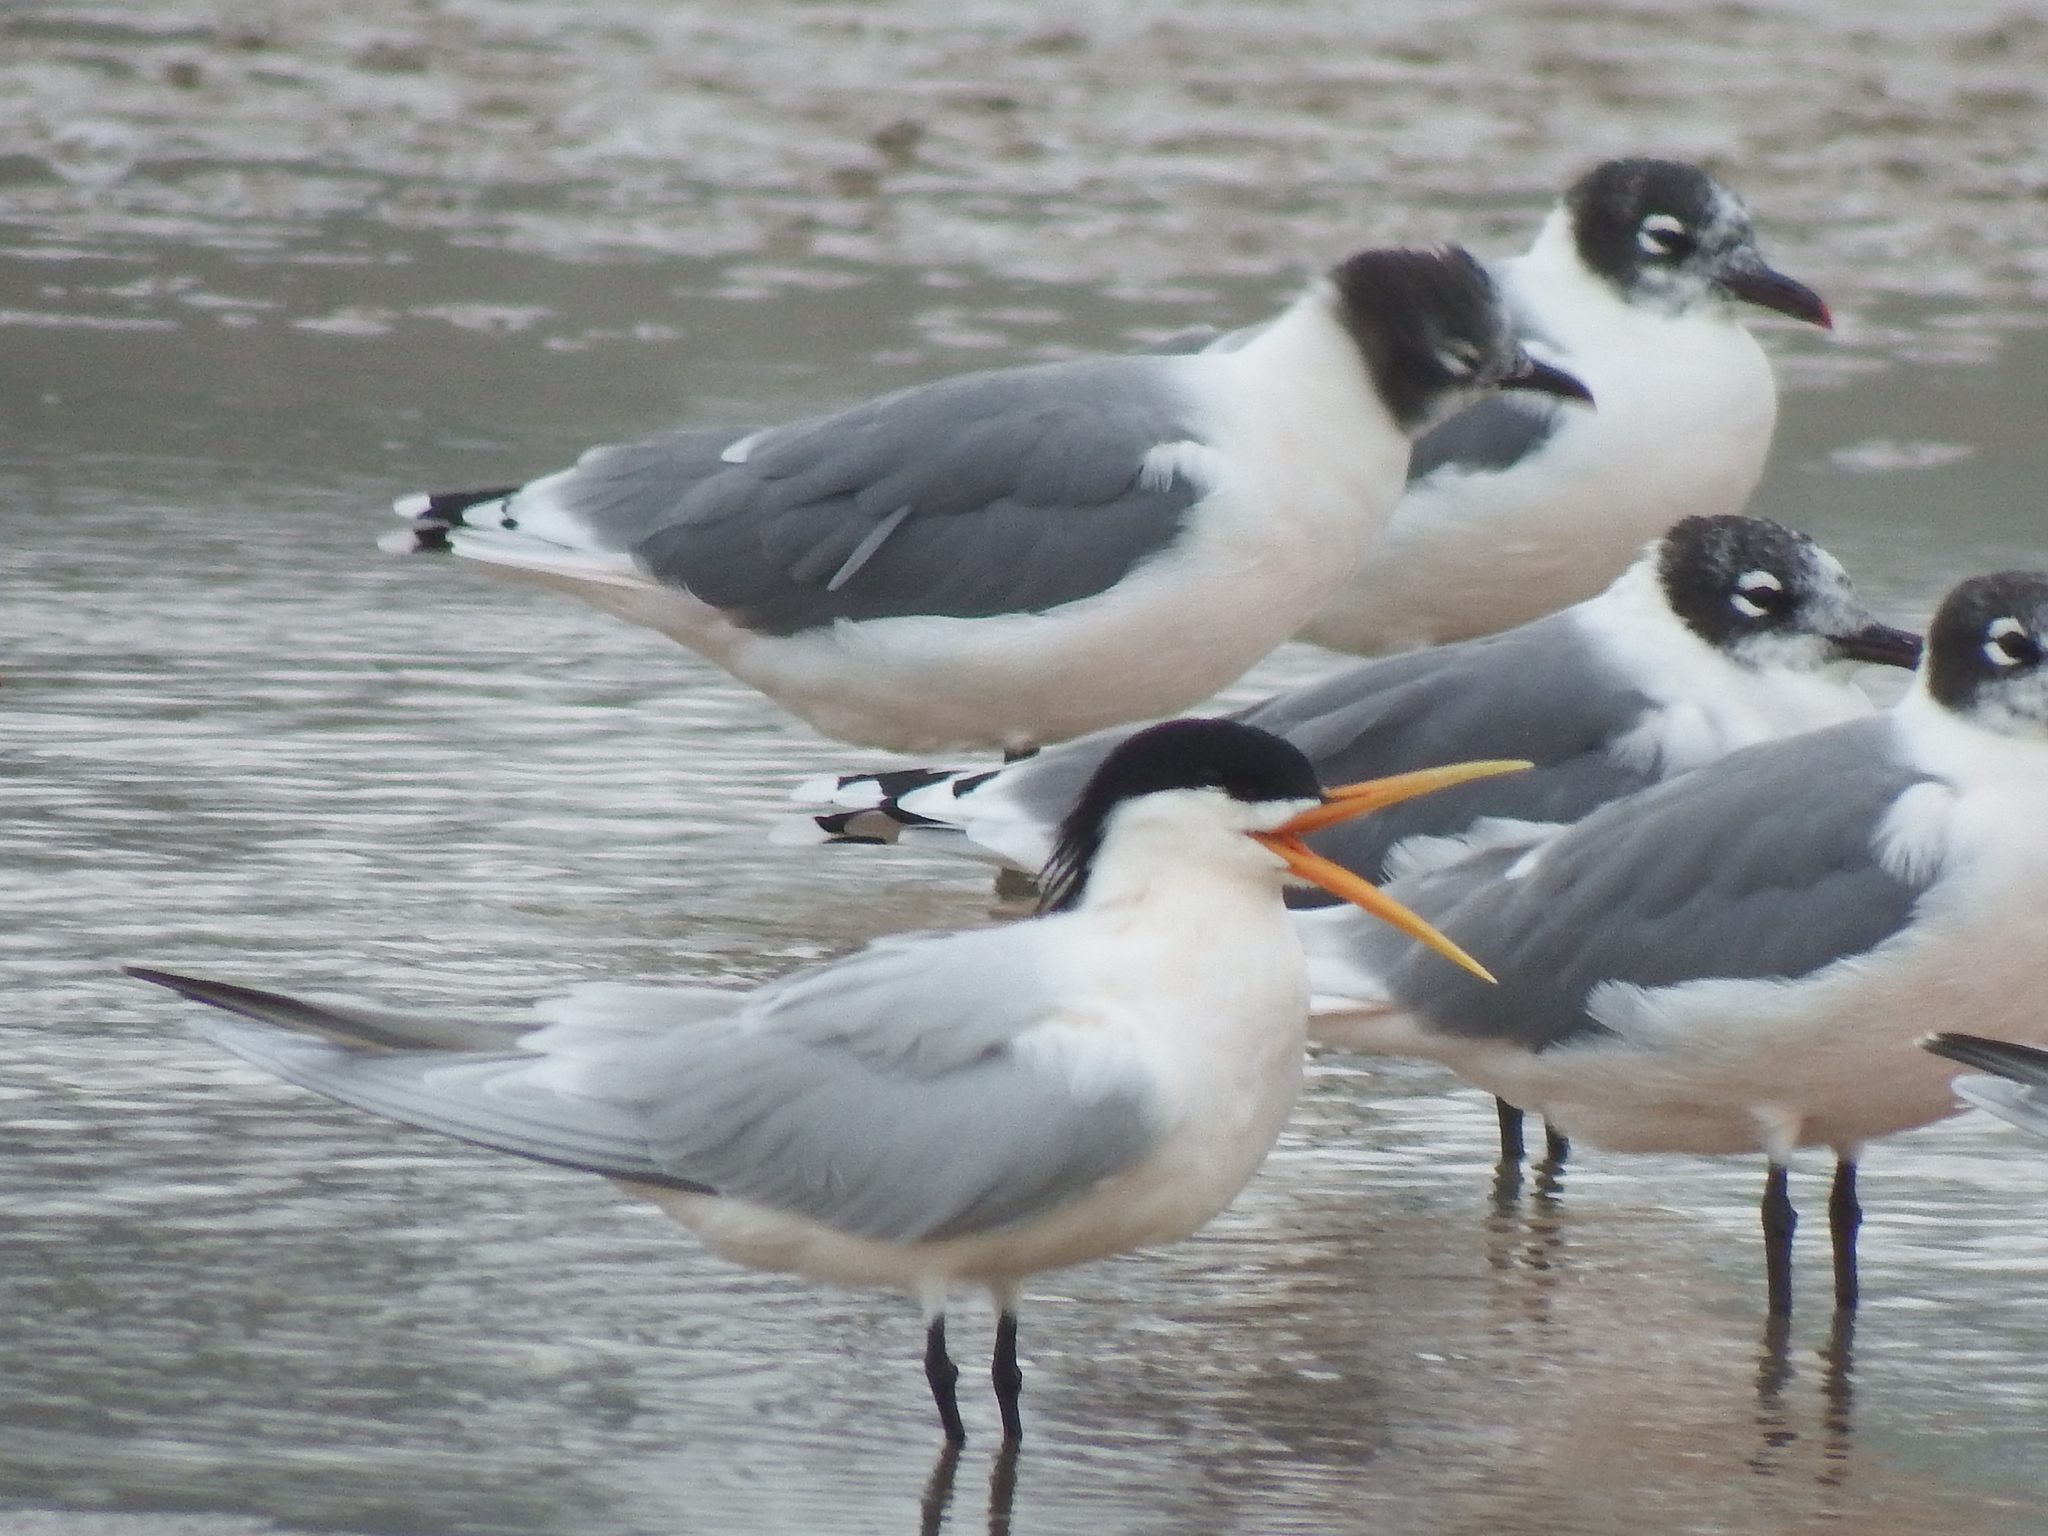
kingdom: Animalia
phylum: Chordata
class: Aves
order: Charadriiformes
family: Laridae
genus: Thalasseus
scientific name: Thalasseus elegans
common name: Elegant tern
